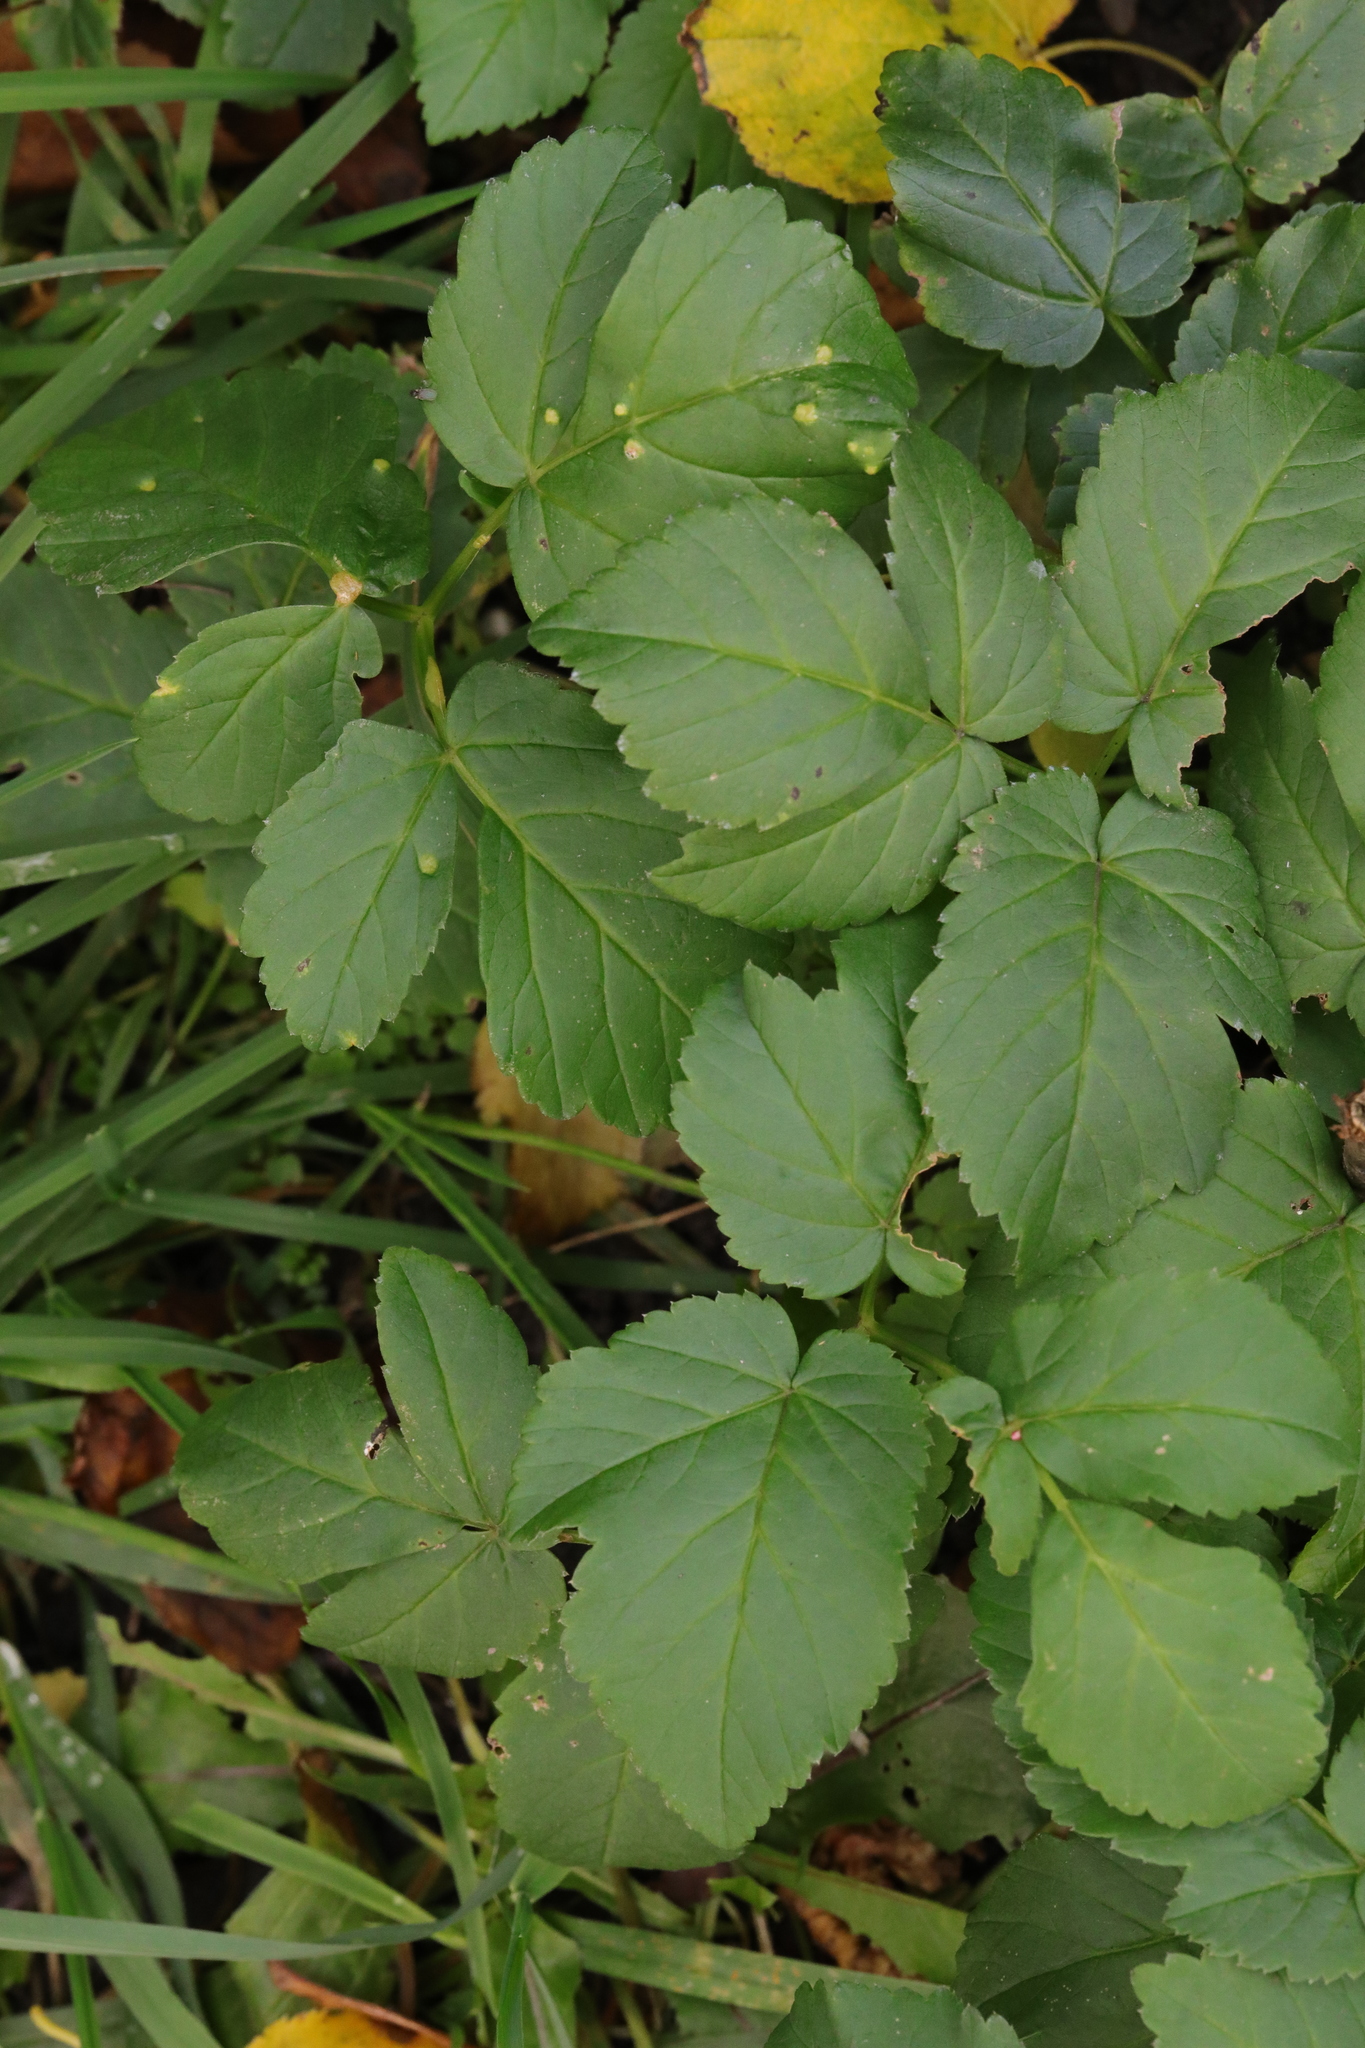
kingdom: Plantae
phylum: Tracheophyta
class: Magnoliopsida
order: Apiales
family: Apiaceae
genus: Aegopodium
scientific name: Aegopodium podagraria
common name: Ground-elder
